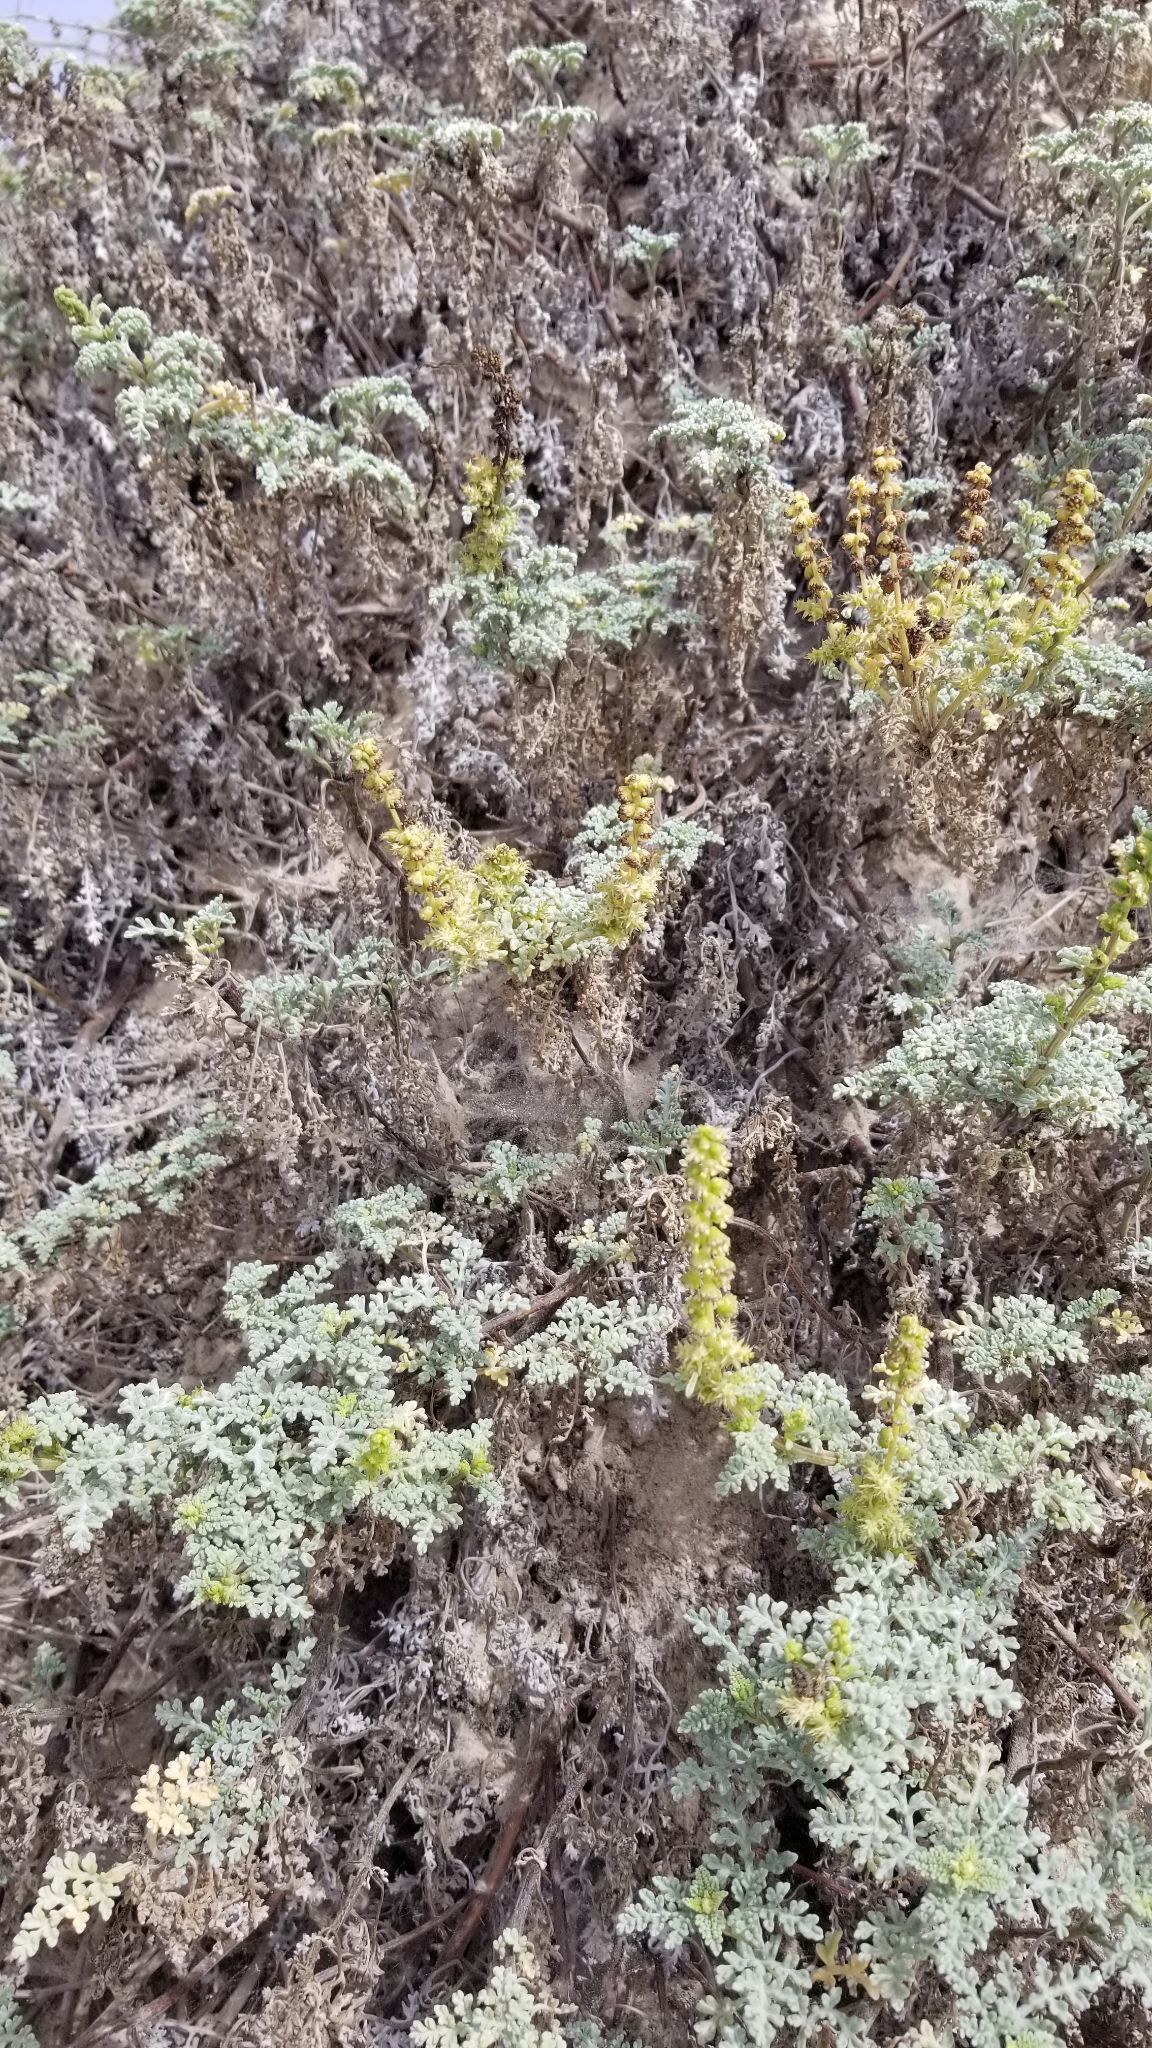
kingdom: Plantae
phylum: Tracheophyta
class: Magnoliopsida
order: Asterales
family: Asteraceae
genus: Ambrosia
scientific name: Ambrosia chamissonis
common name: Beachbur
